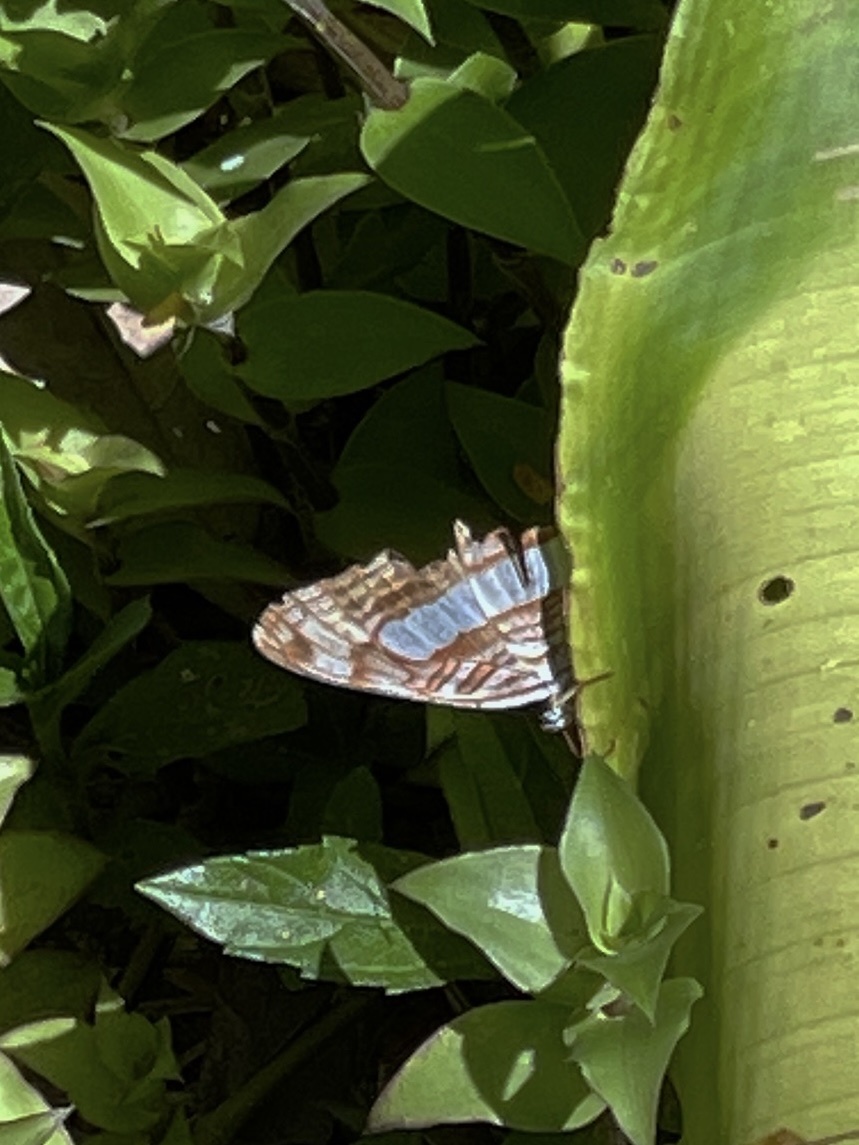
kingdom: Animalia
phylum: Arthropoda
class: Insecta
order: Lepidoptera
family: Nymphalidae
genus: Limenitis
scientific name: Limenitis iphiclus
